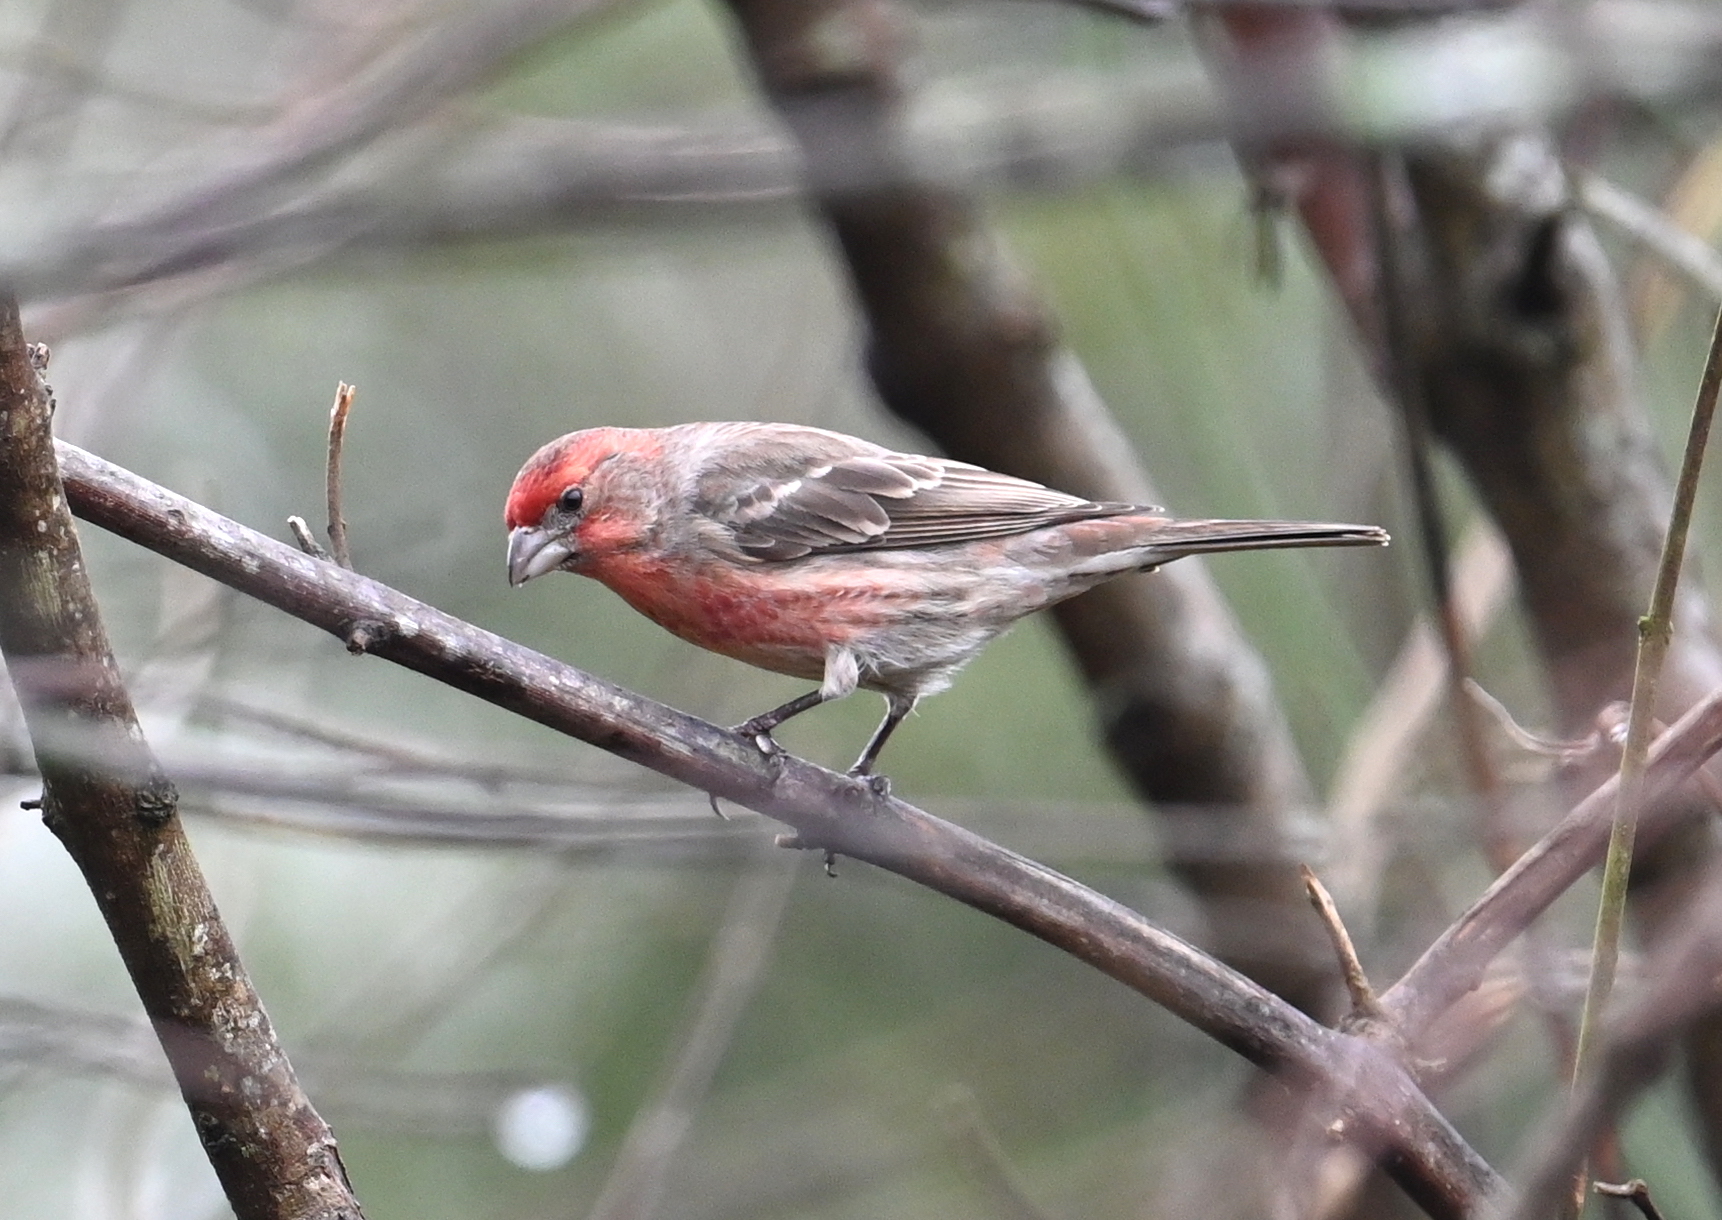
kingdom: Animalia
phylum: Chordata
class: Aves
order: Passeriformes
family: Fringillidae
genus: Haemorhous
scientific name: Haemorhous mexicanus
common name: House finch
